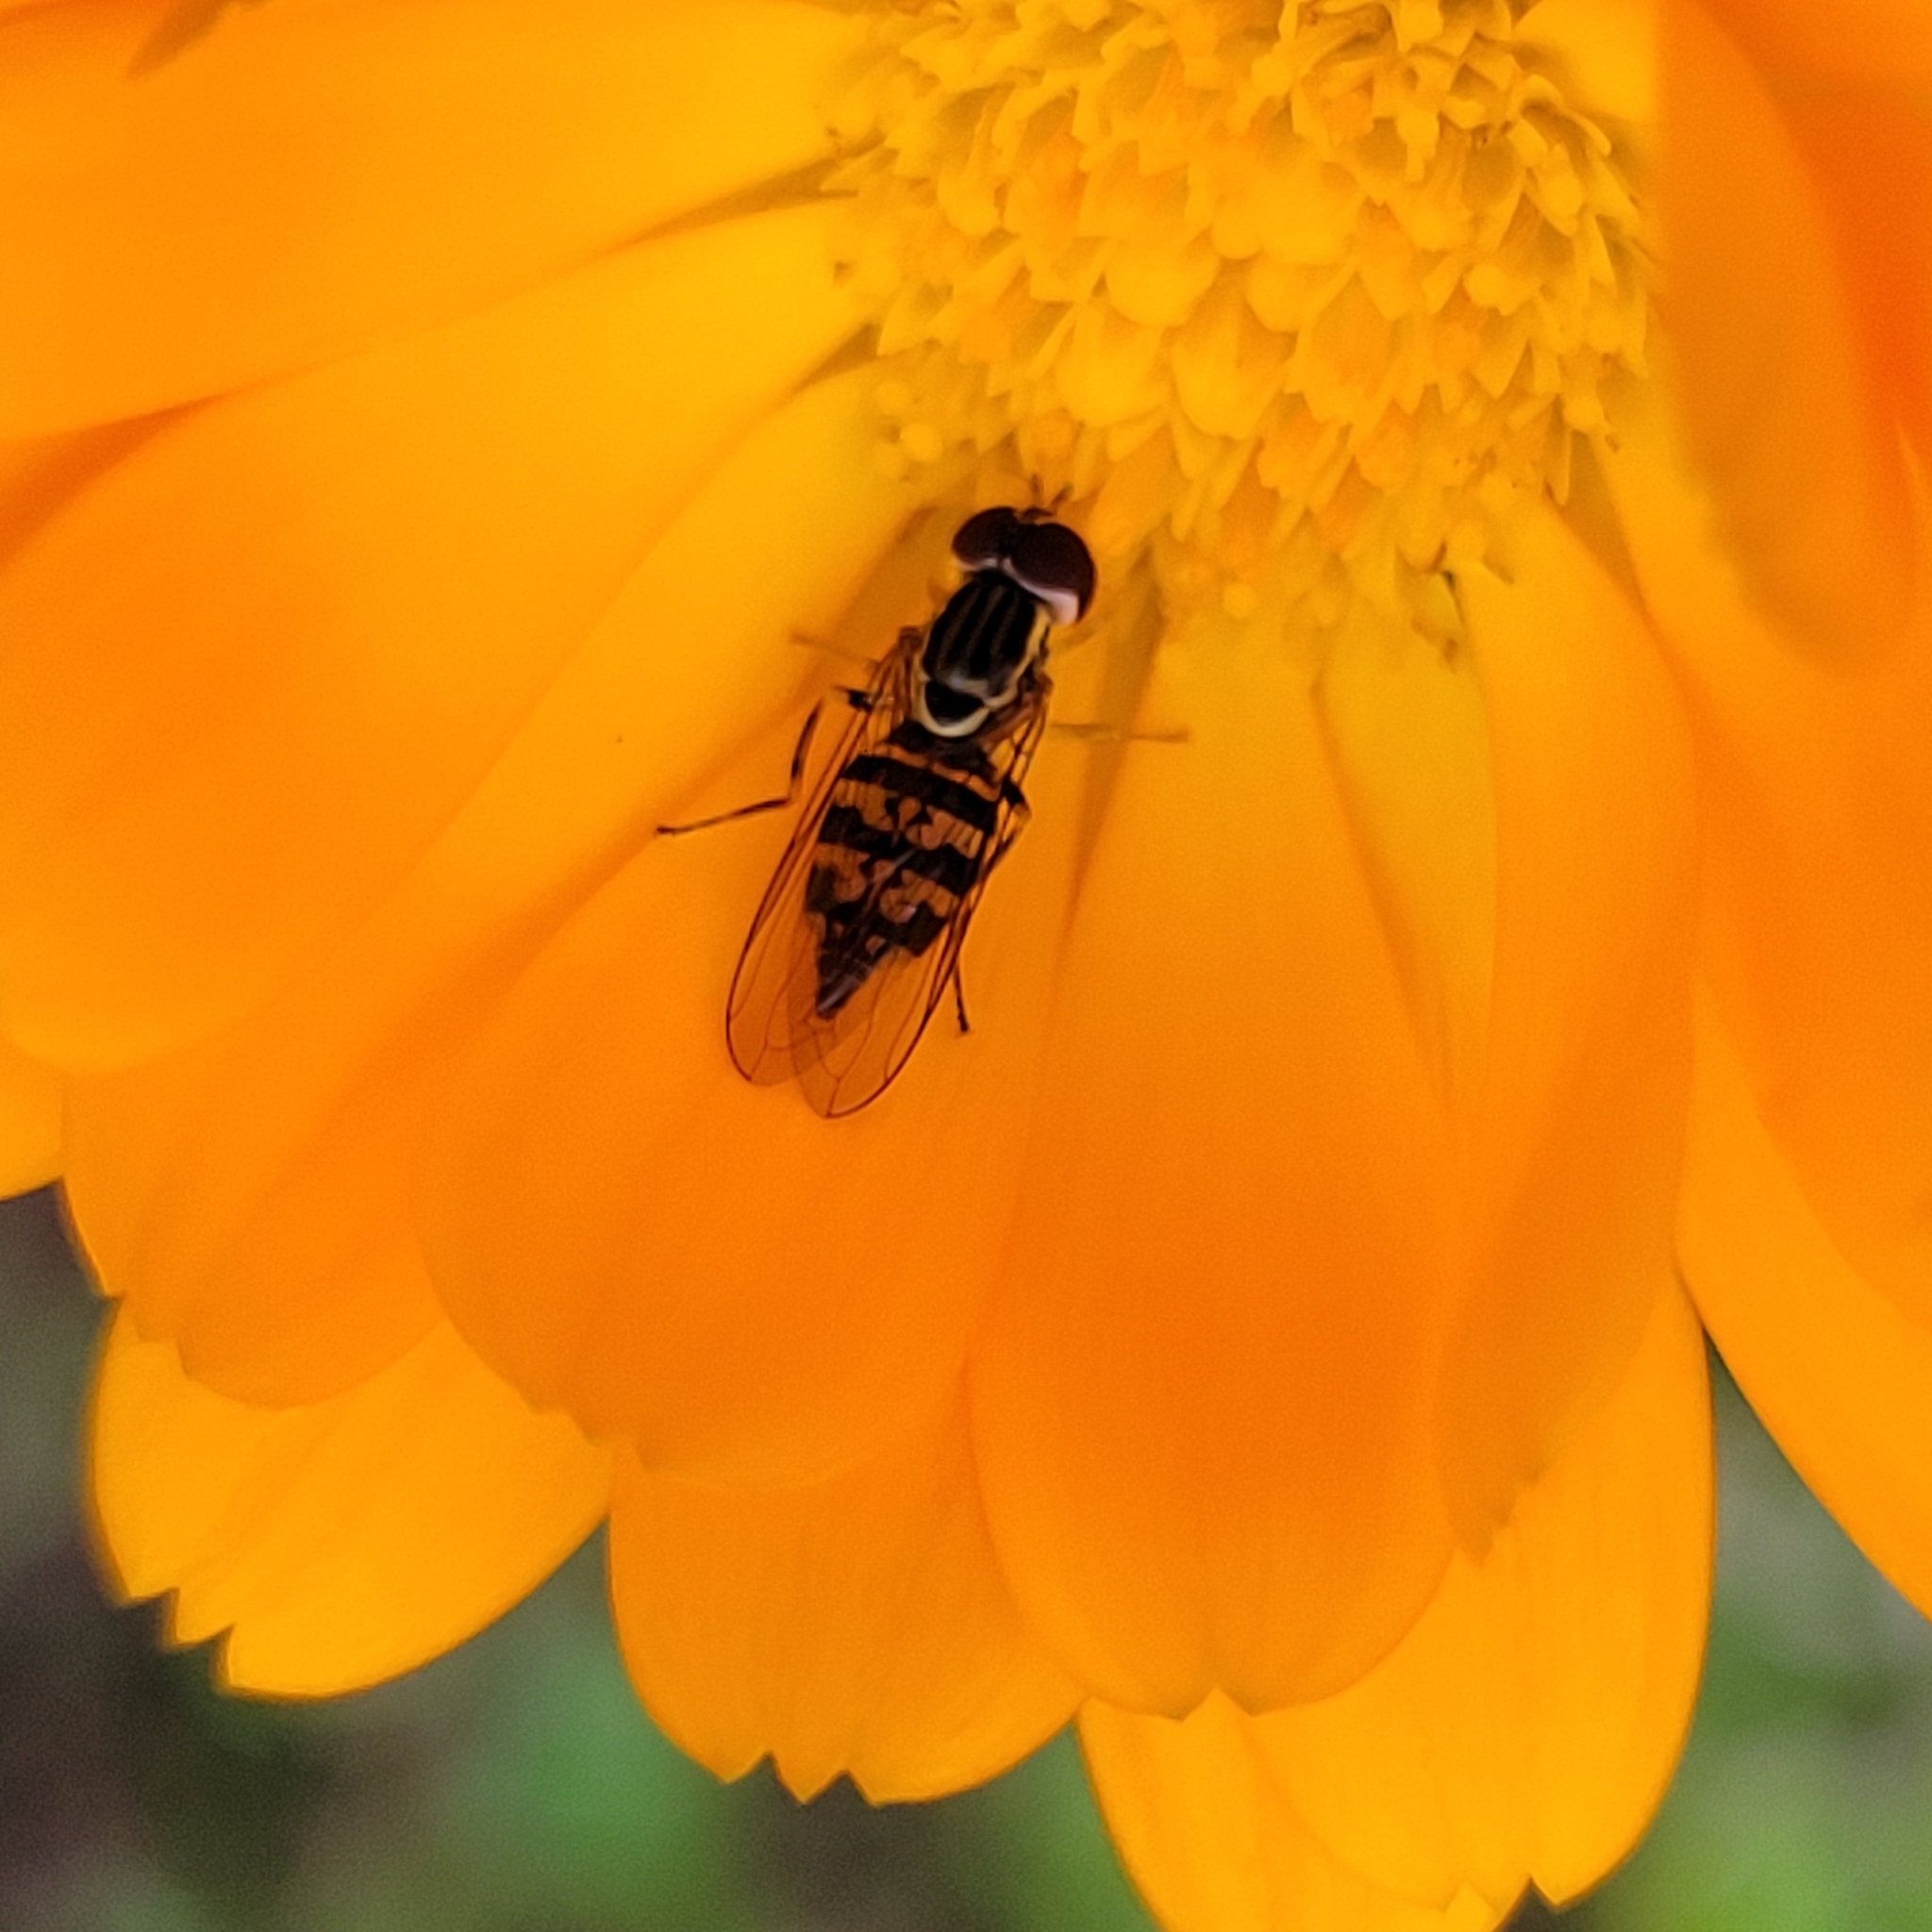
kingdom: Animalia
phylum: Arthropoda
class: Insecta
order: Diptera
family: Syrphidae
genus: Toxomerus
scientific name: Toxomerus geminatus
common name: Eastern calligrapher
